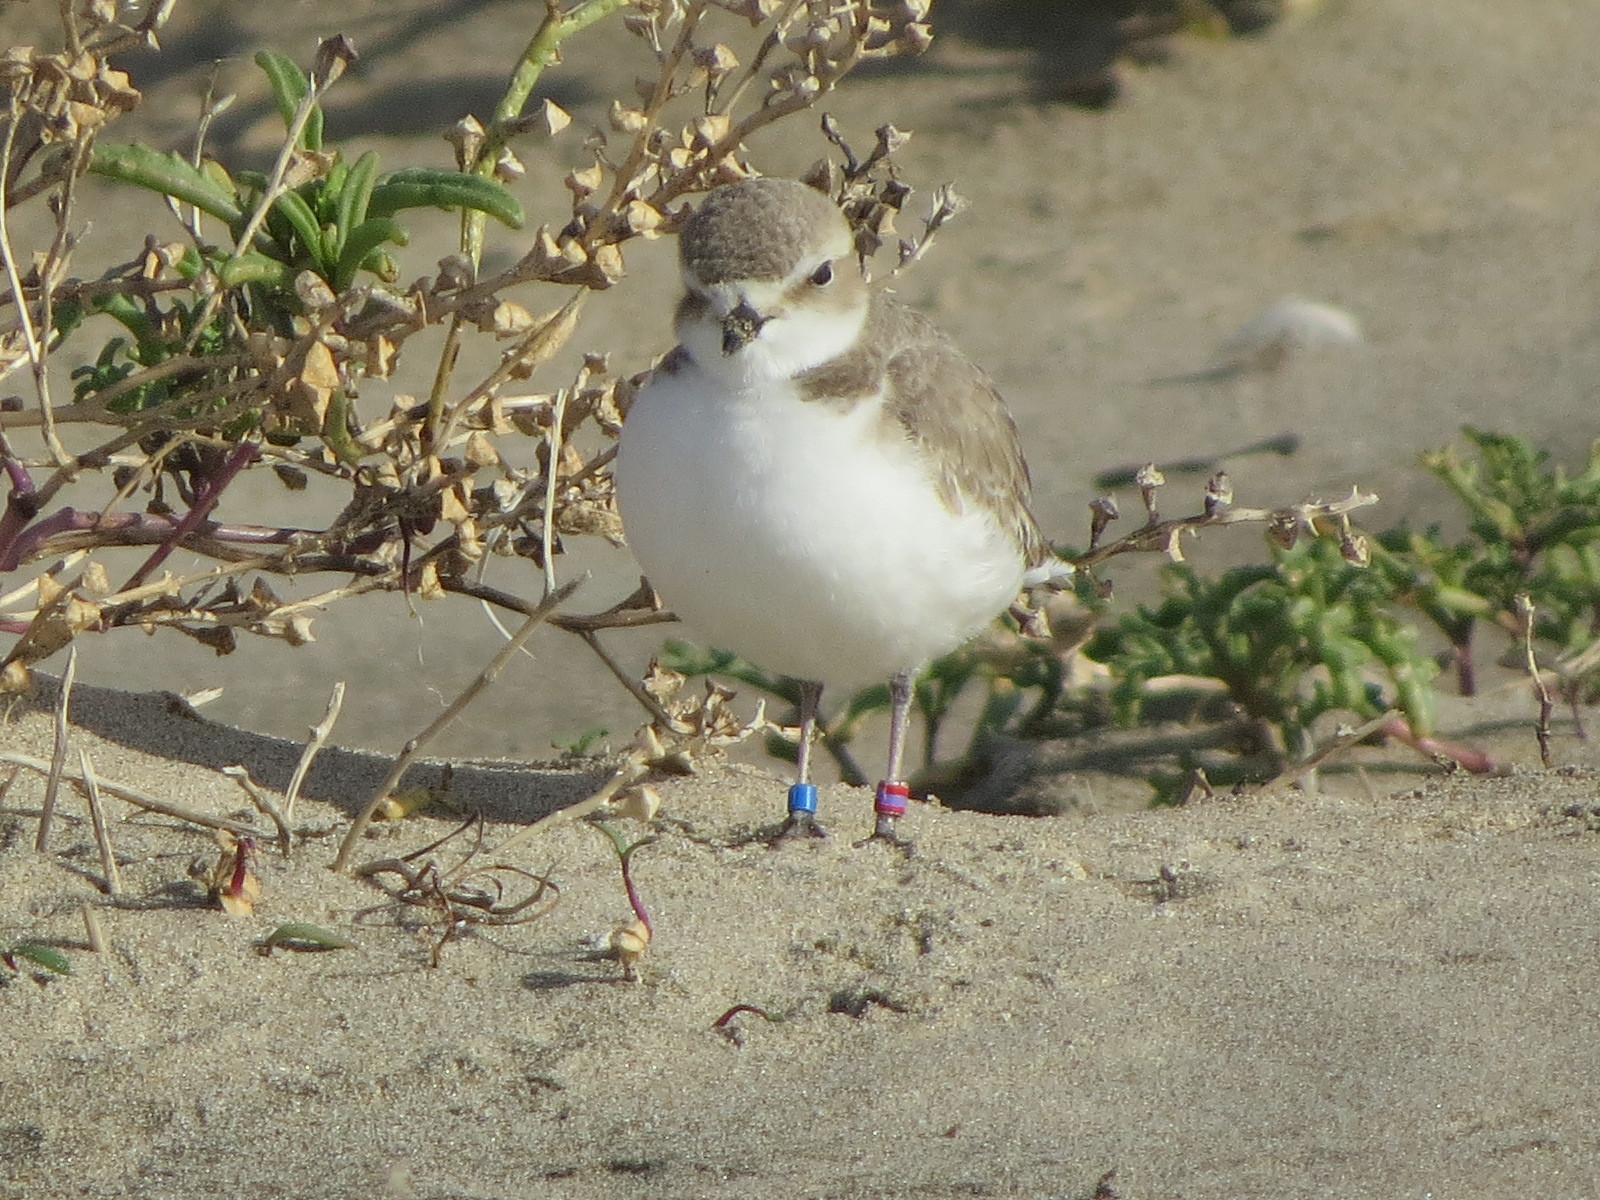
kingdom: Animalia
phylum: Chordata
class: Aves
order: Charadriiformes
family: Charadriidae
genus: Anarhynchus
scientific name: Anarhynchus
